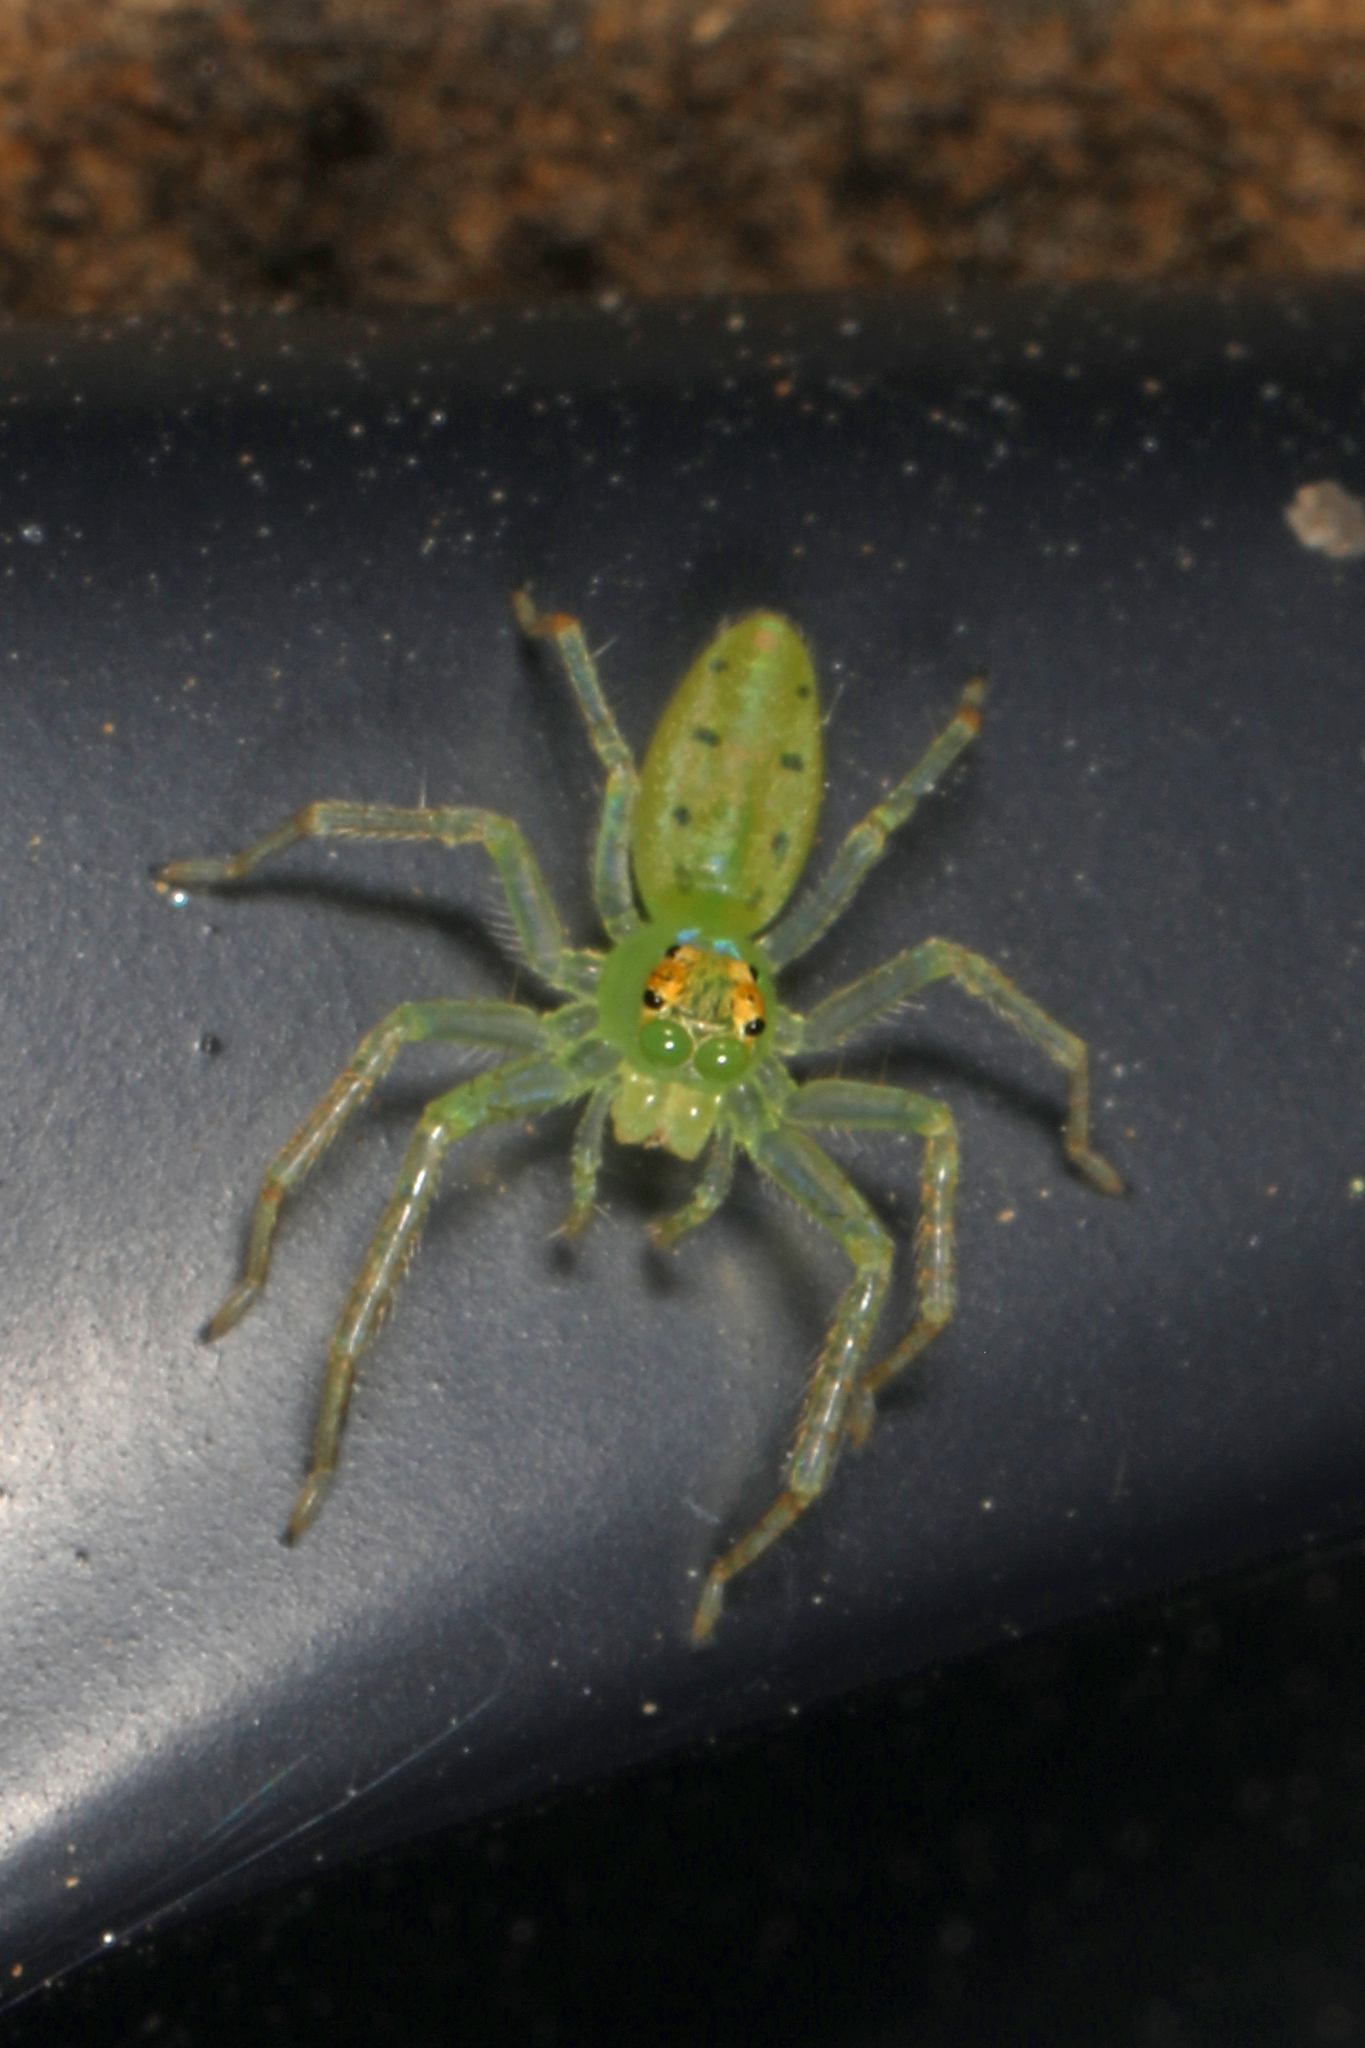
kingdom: Animalia
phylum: Arthropoda
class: Arachnida
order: Araneae
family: Salticidae
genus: Lyssomanes
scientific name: Lyssomanes viridis
